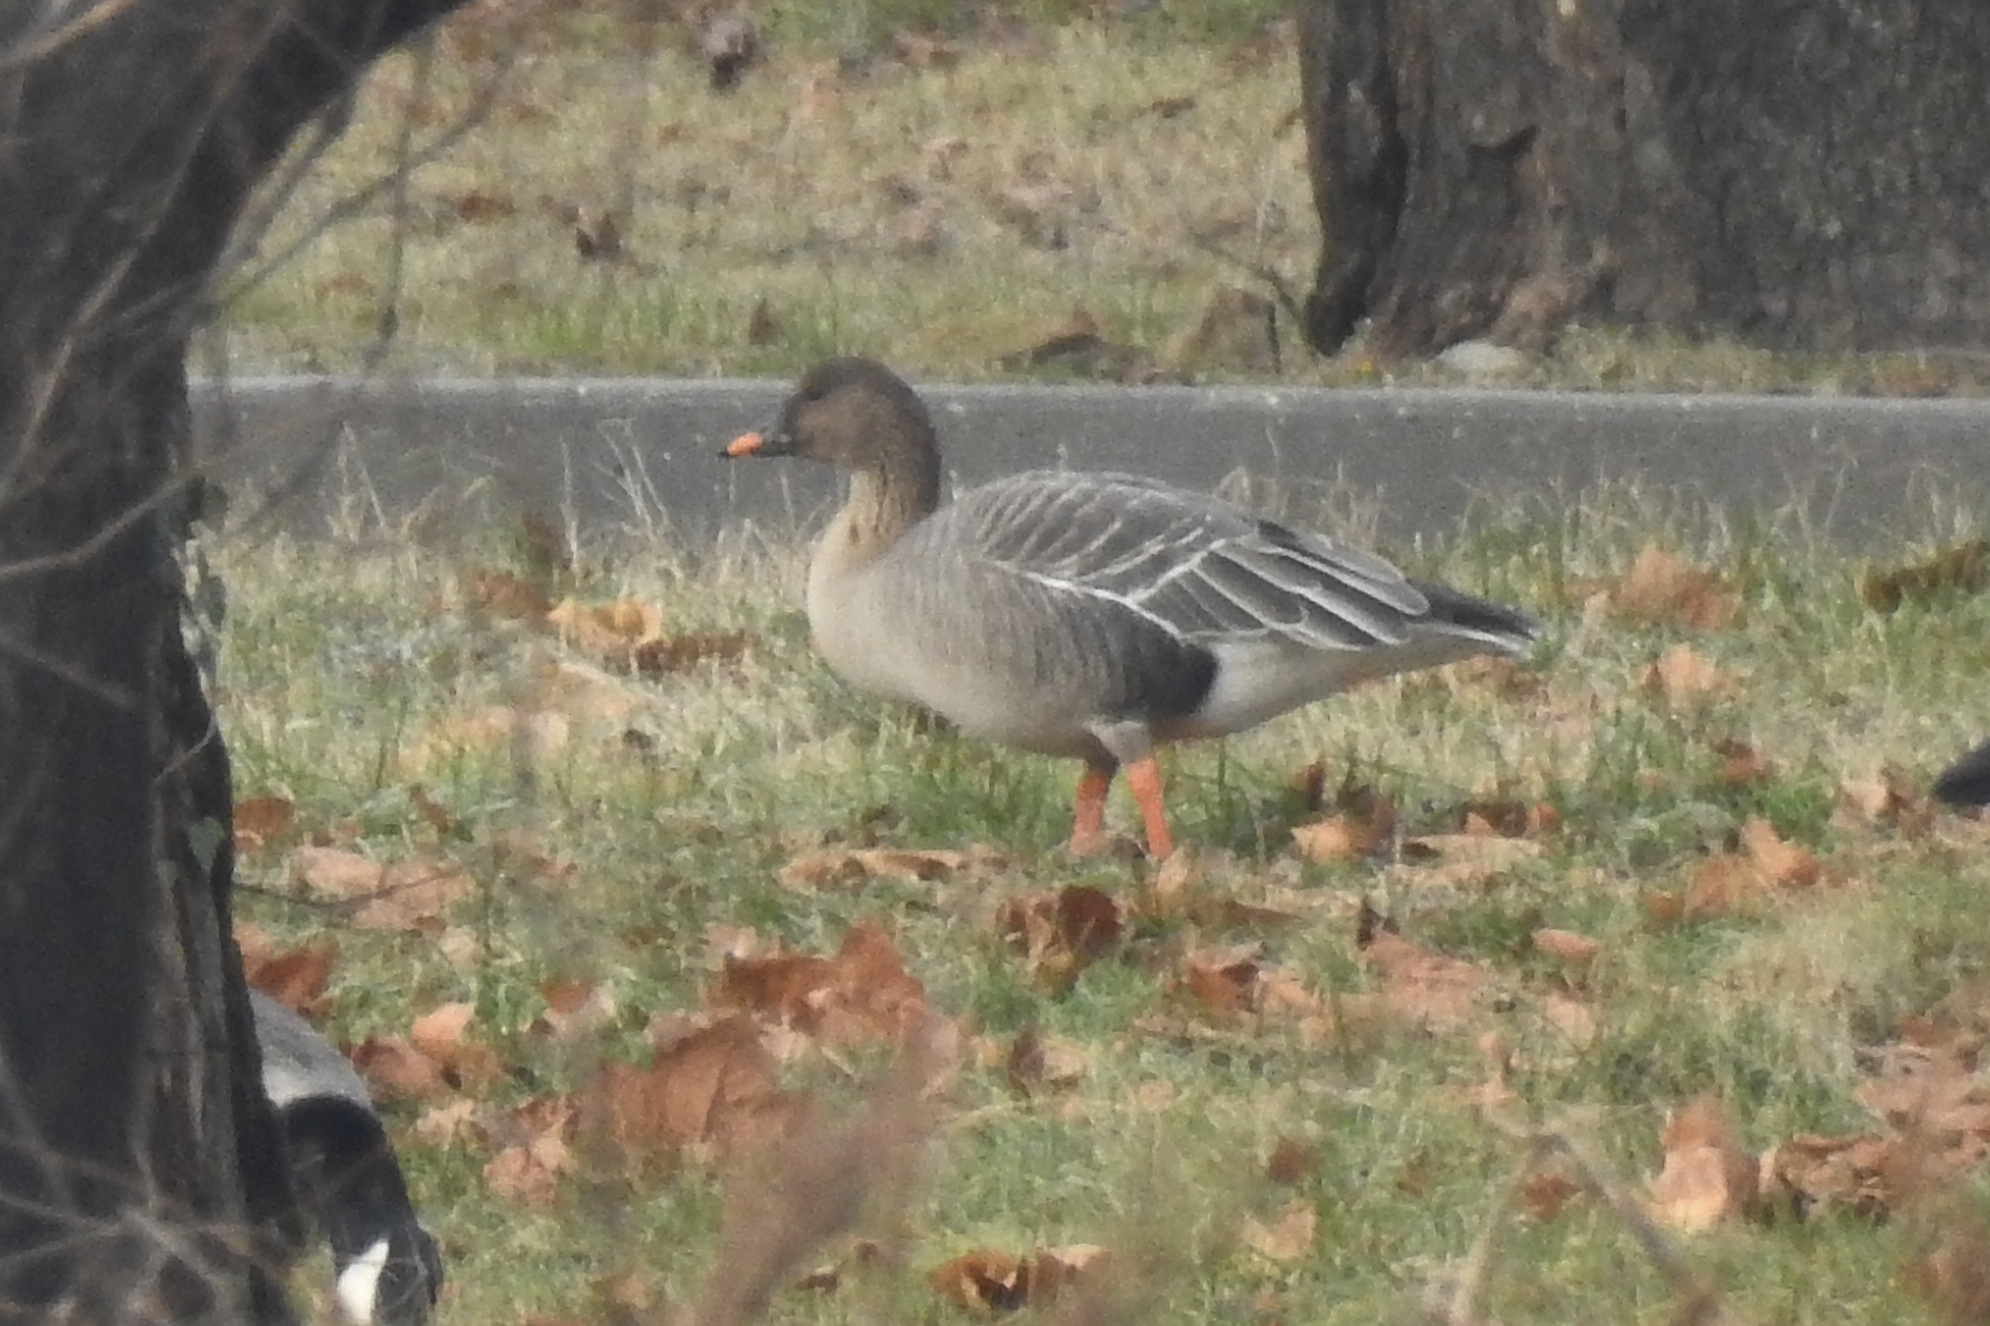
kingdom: Animalia
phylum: Chordata
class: Aves
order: Anseriformes
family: Anatidae
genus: Anser
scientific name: Anser serrirostris
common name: Tundra bean goose
